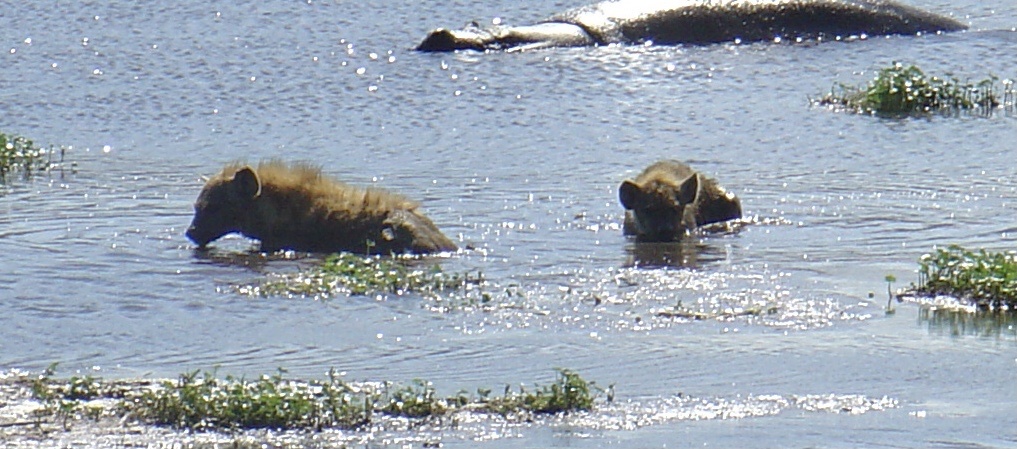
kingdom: Animalia
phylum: Chordata
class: Mammalia
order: Carnivora
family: Hyaenidae
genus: Crocuta
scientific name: Crocuta crocuta
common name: Spotted hyaena
